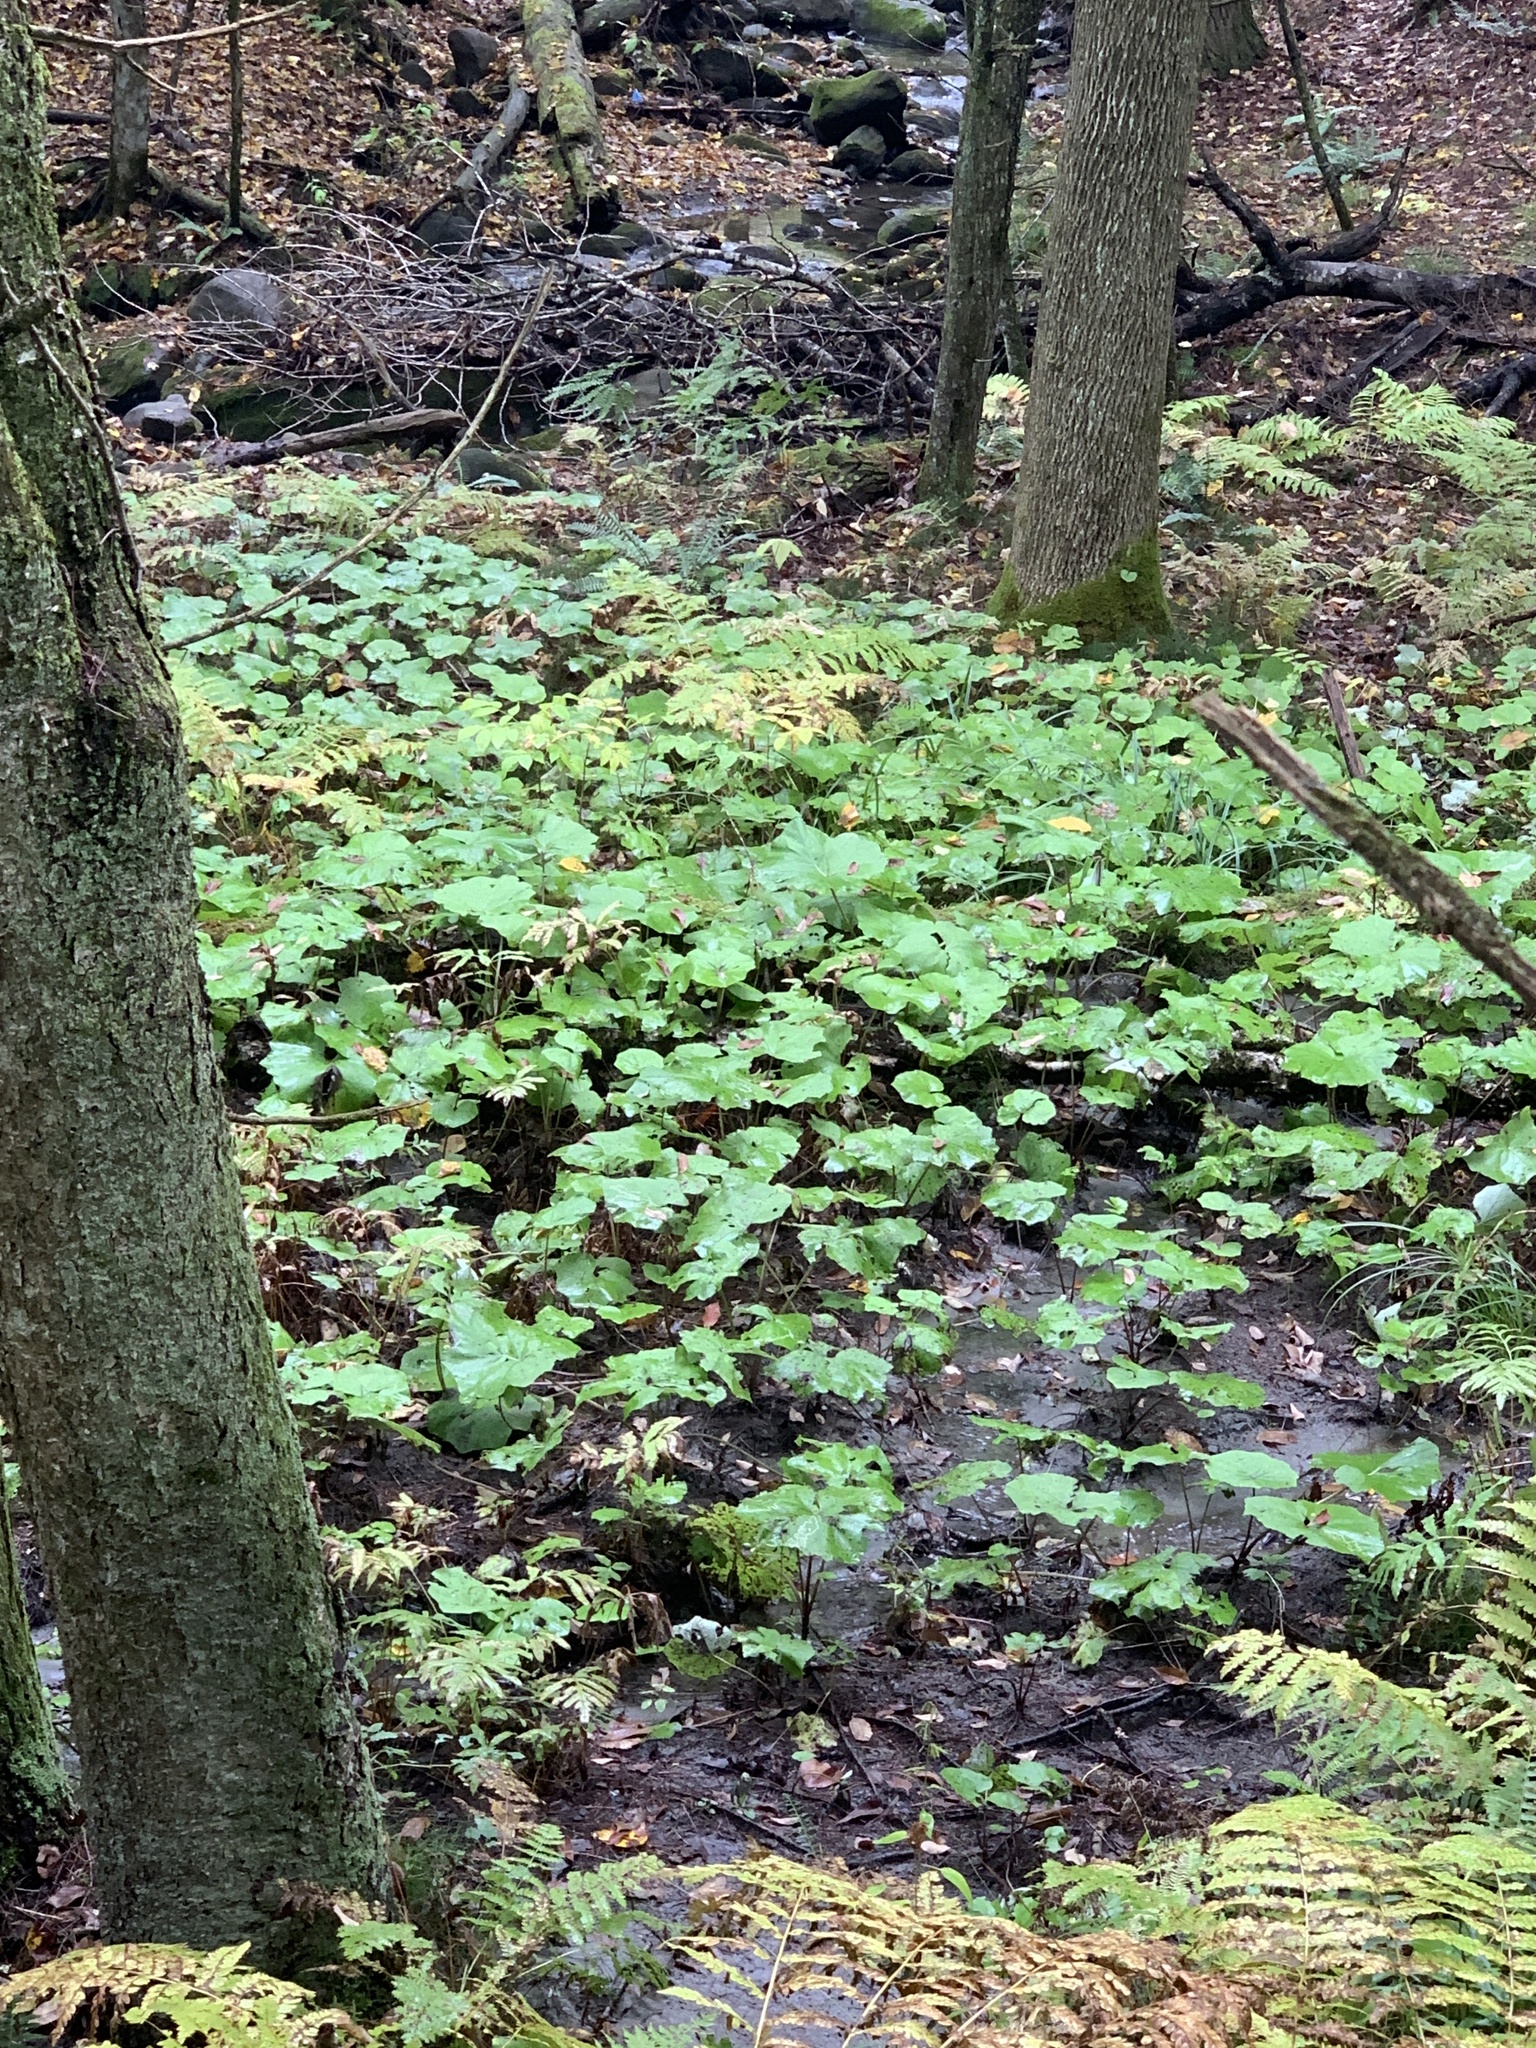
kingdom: Plantae
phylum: Tracheophyta
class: Magnoliopsida
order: Asterales
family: Asteraceae
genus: Tussilago
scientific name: Tussilago farfara
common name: Coltsfoot
